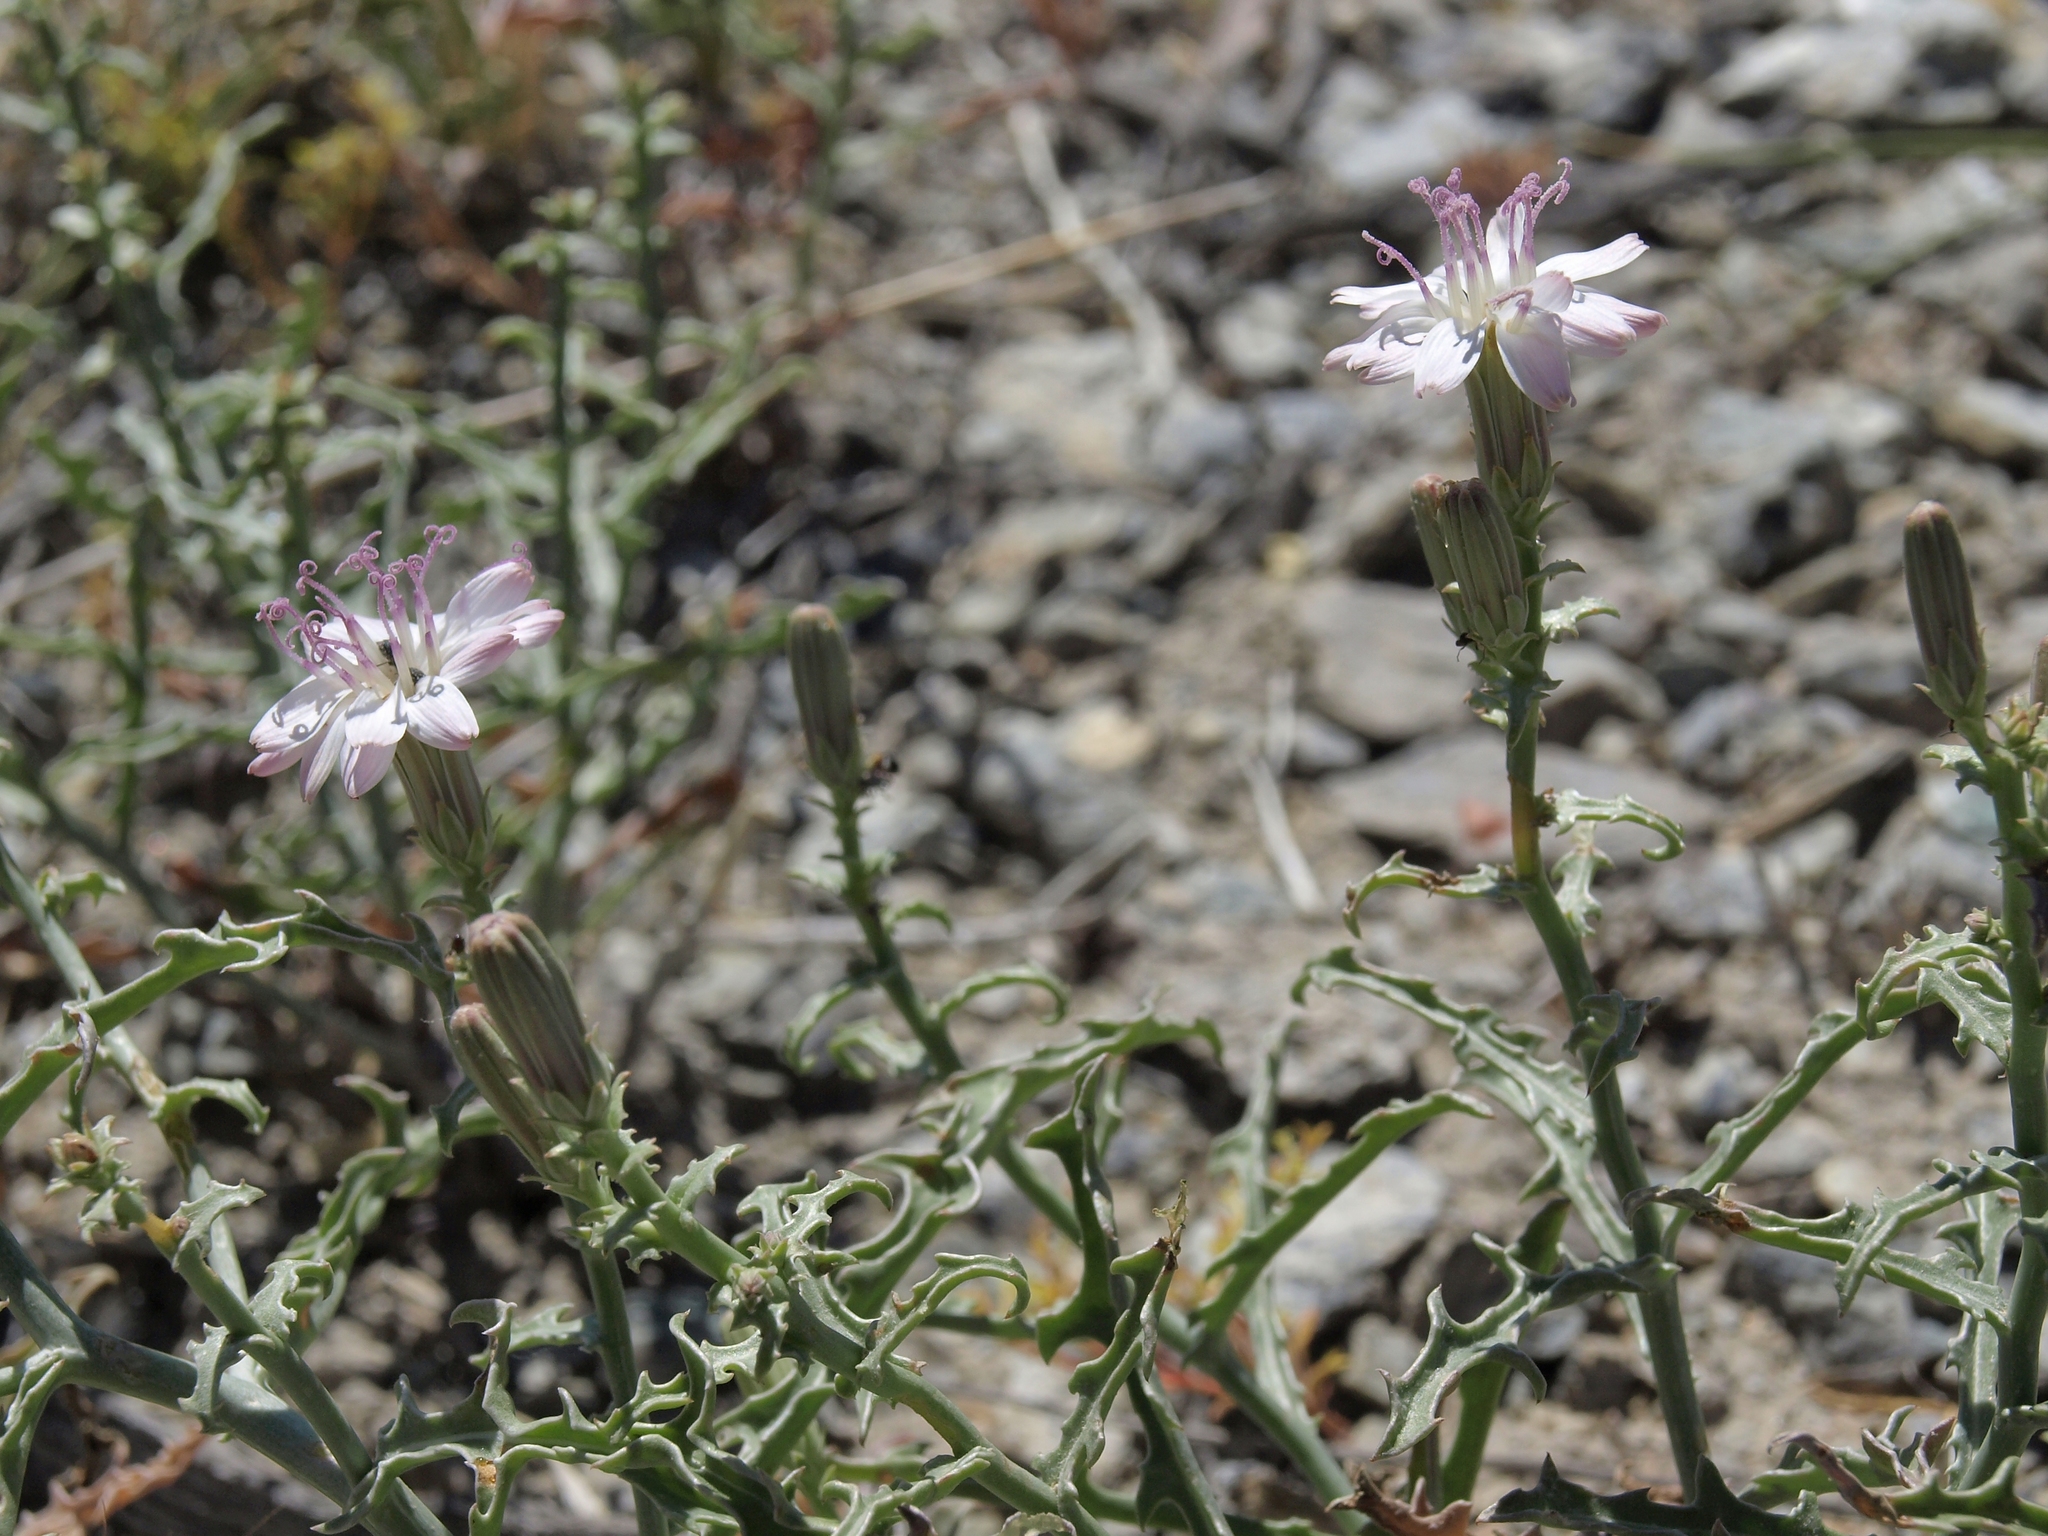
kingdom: Plantae
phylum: Tracheophyta
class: Magnoliopsida
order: Asterales
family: Asteraceae
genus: Stephanomeria
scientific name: Stephanomeria parryi
